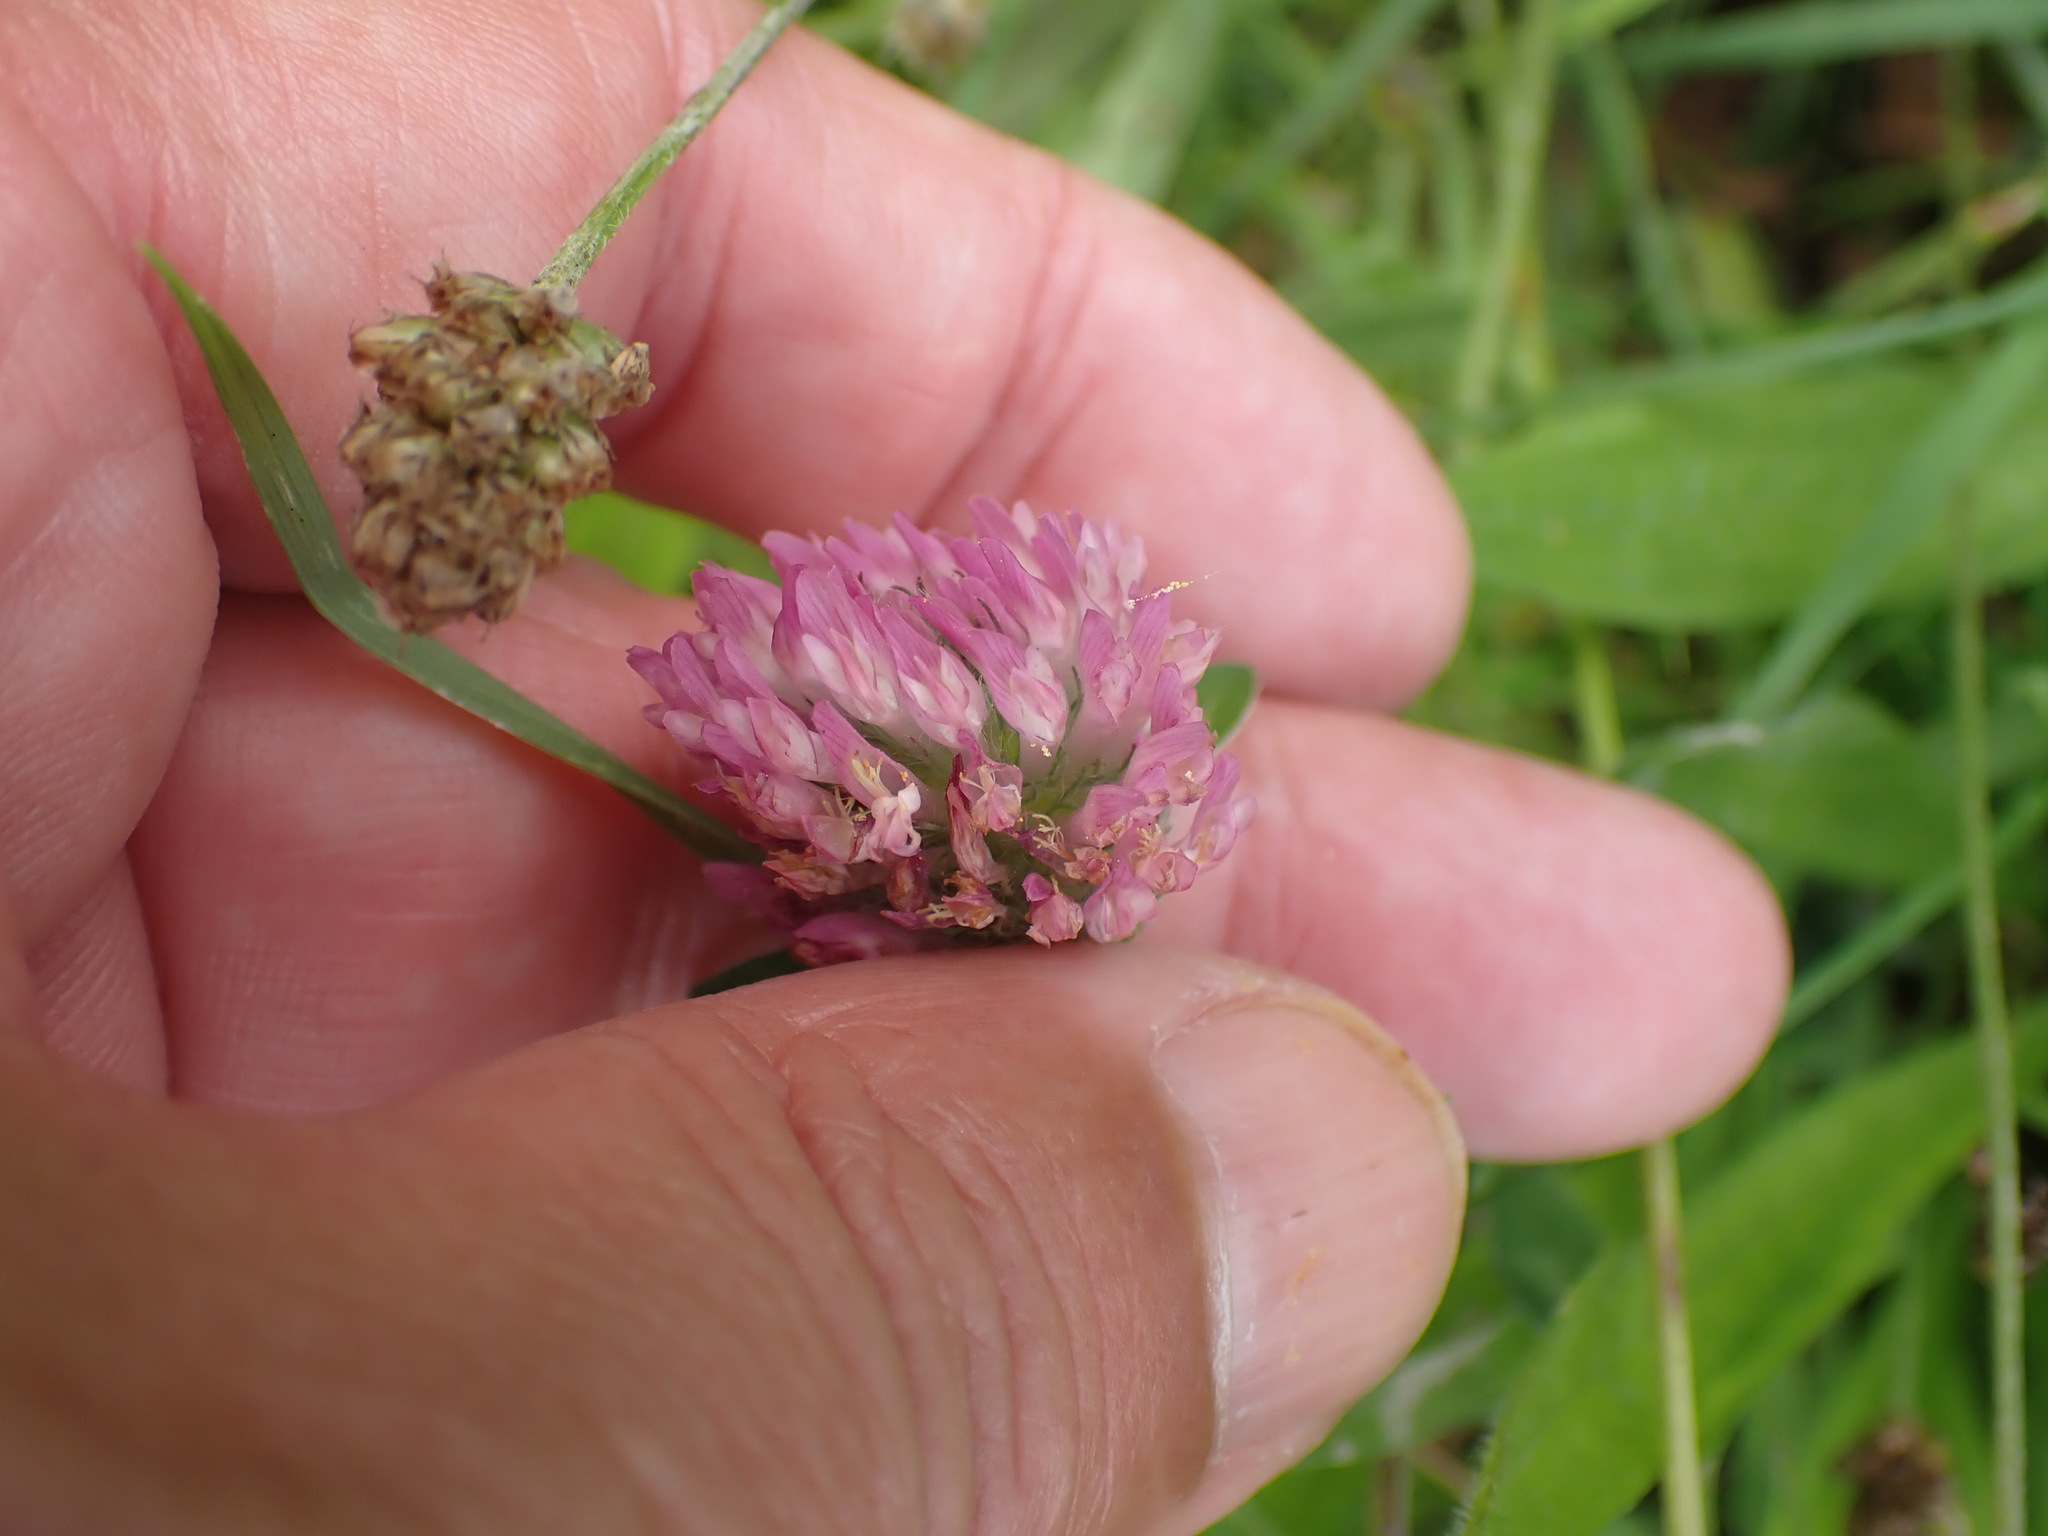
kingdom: Plantae
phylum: Tracheophyta
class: Magnoliopsida
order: Fabales
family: Fabaceae
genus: Trifolium
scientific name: Trifolium pratense
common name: Red clover
